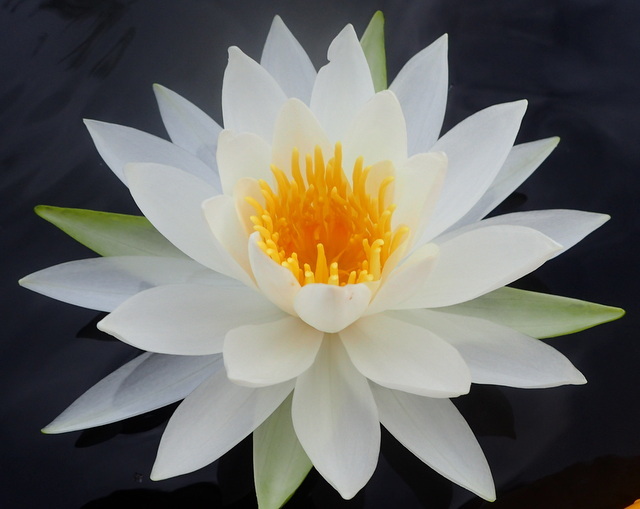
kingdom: Plantae
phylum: Tracheophyta
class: Magnoliopsida
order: Nymphaeales
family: Nymphaeaceae
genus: Nymphaea
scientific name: Nymphaea odorata
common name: Fragrant water-lily
